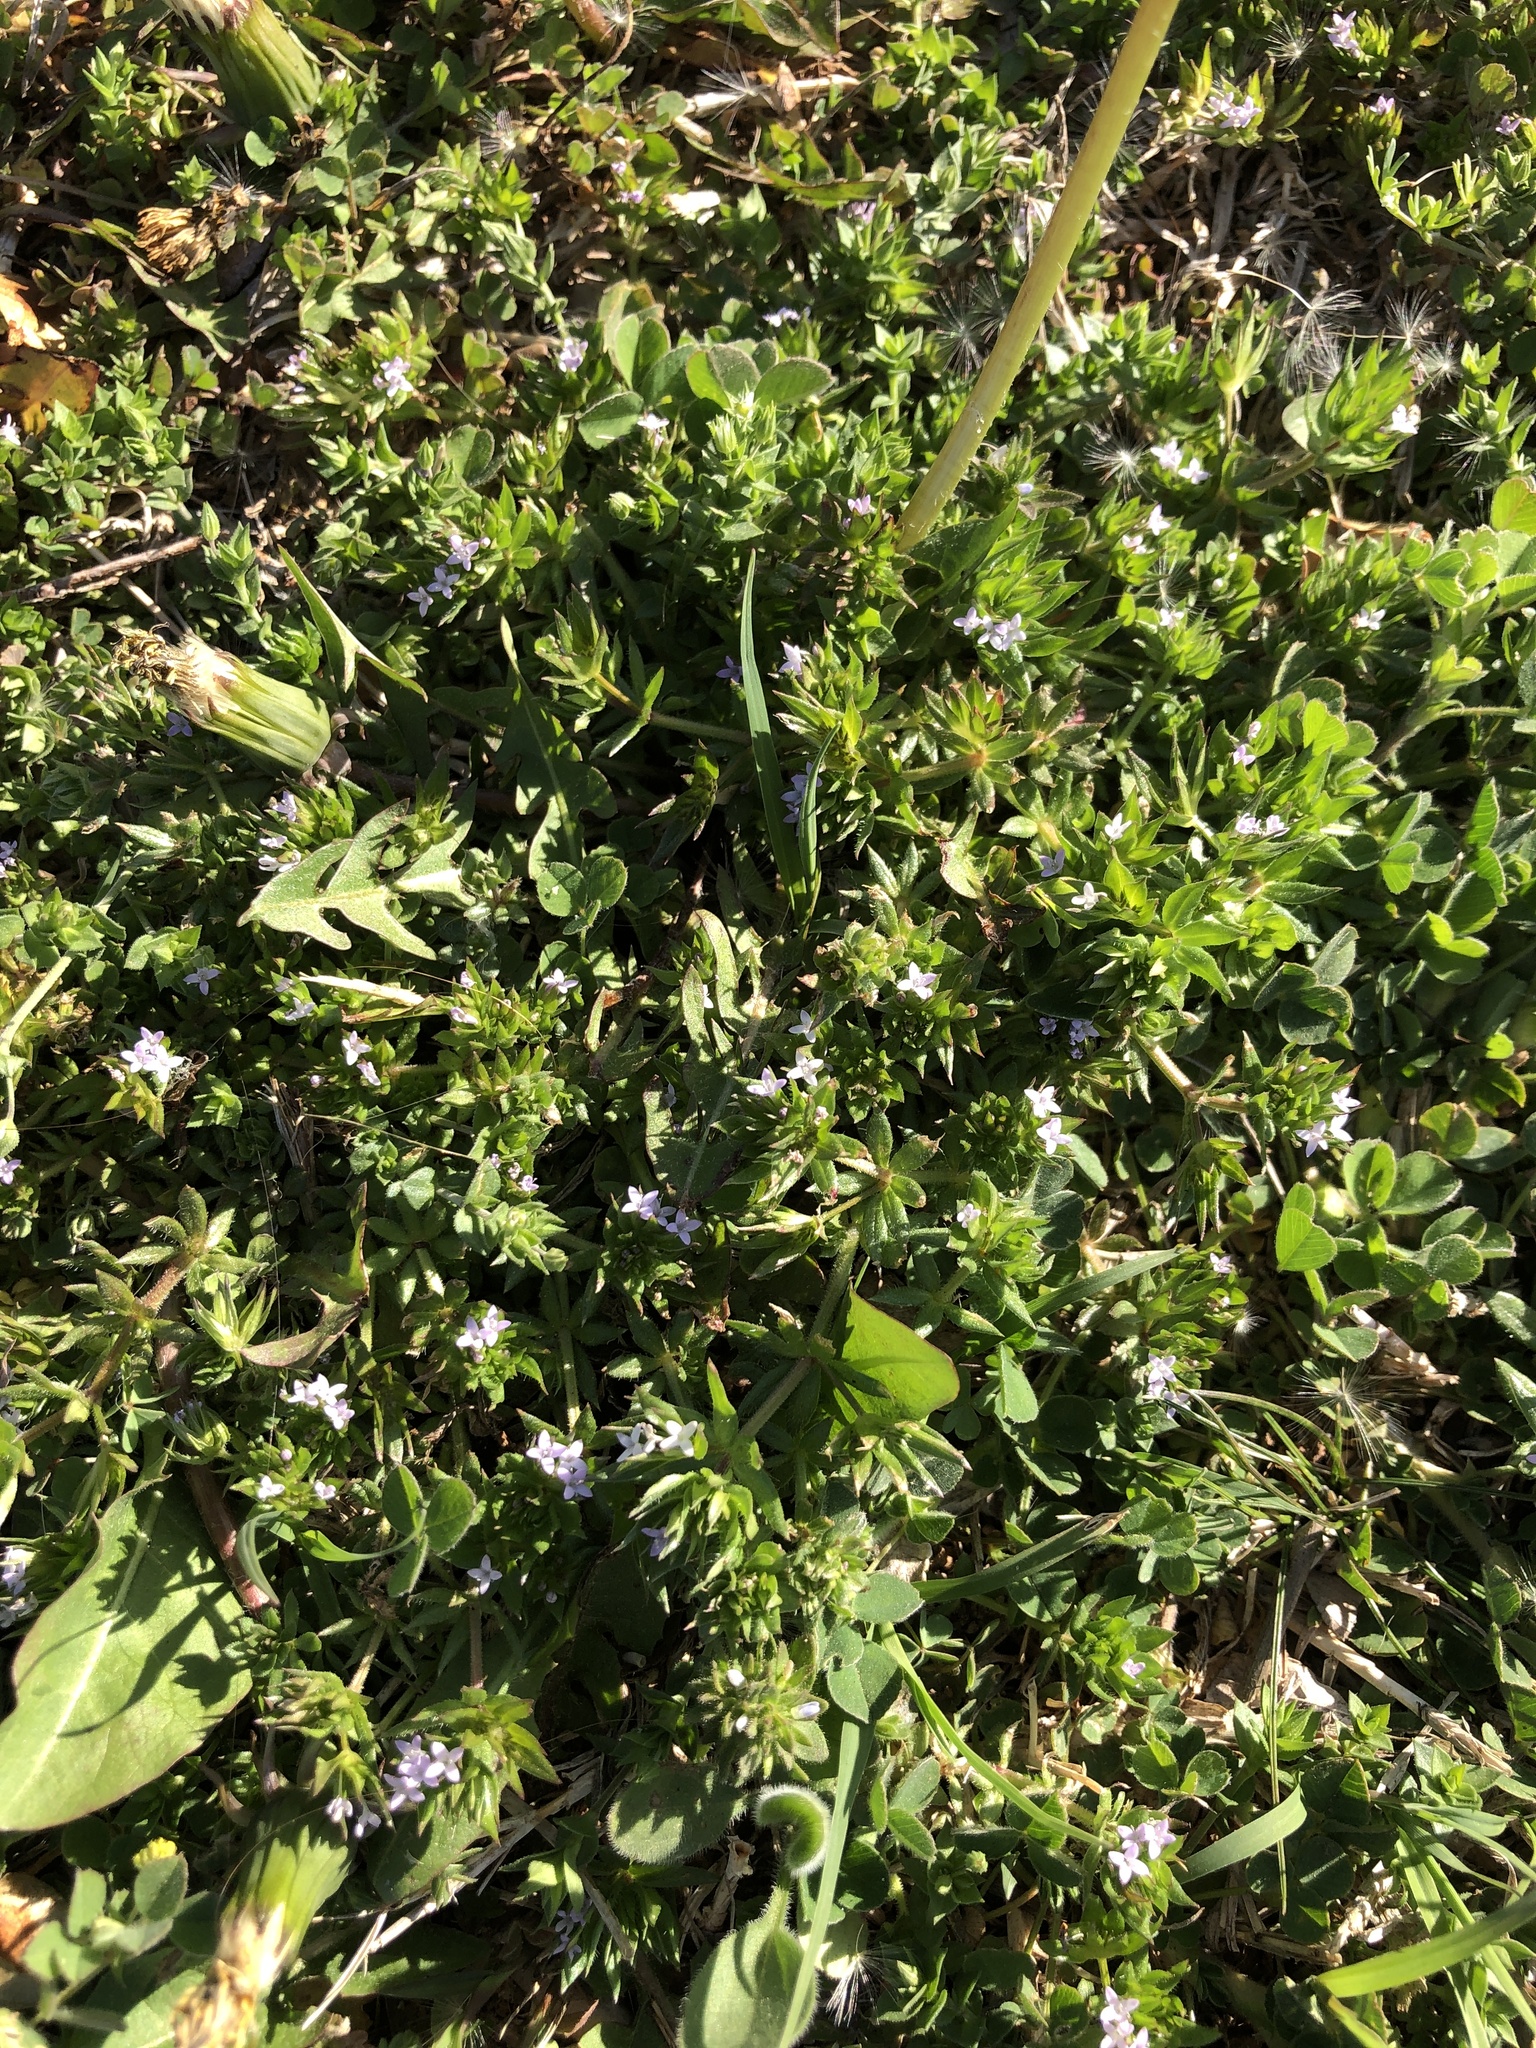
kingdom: Plantae
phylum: Tracheophyta
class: Magnoliopsida
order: Gentianales
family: Rubiaceae
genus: Sherardia
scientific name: Sherardia arvensis
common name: Field madder
